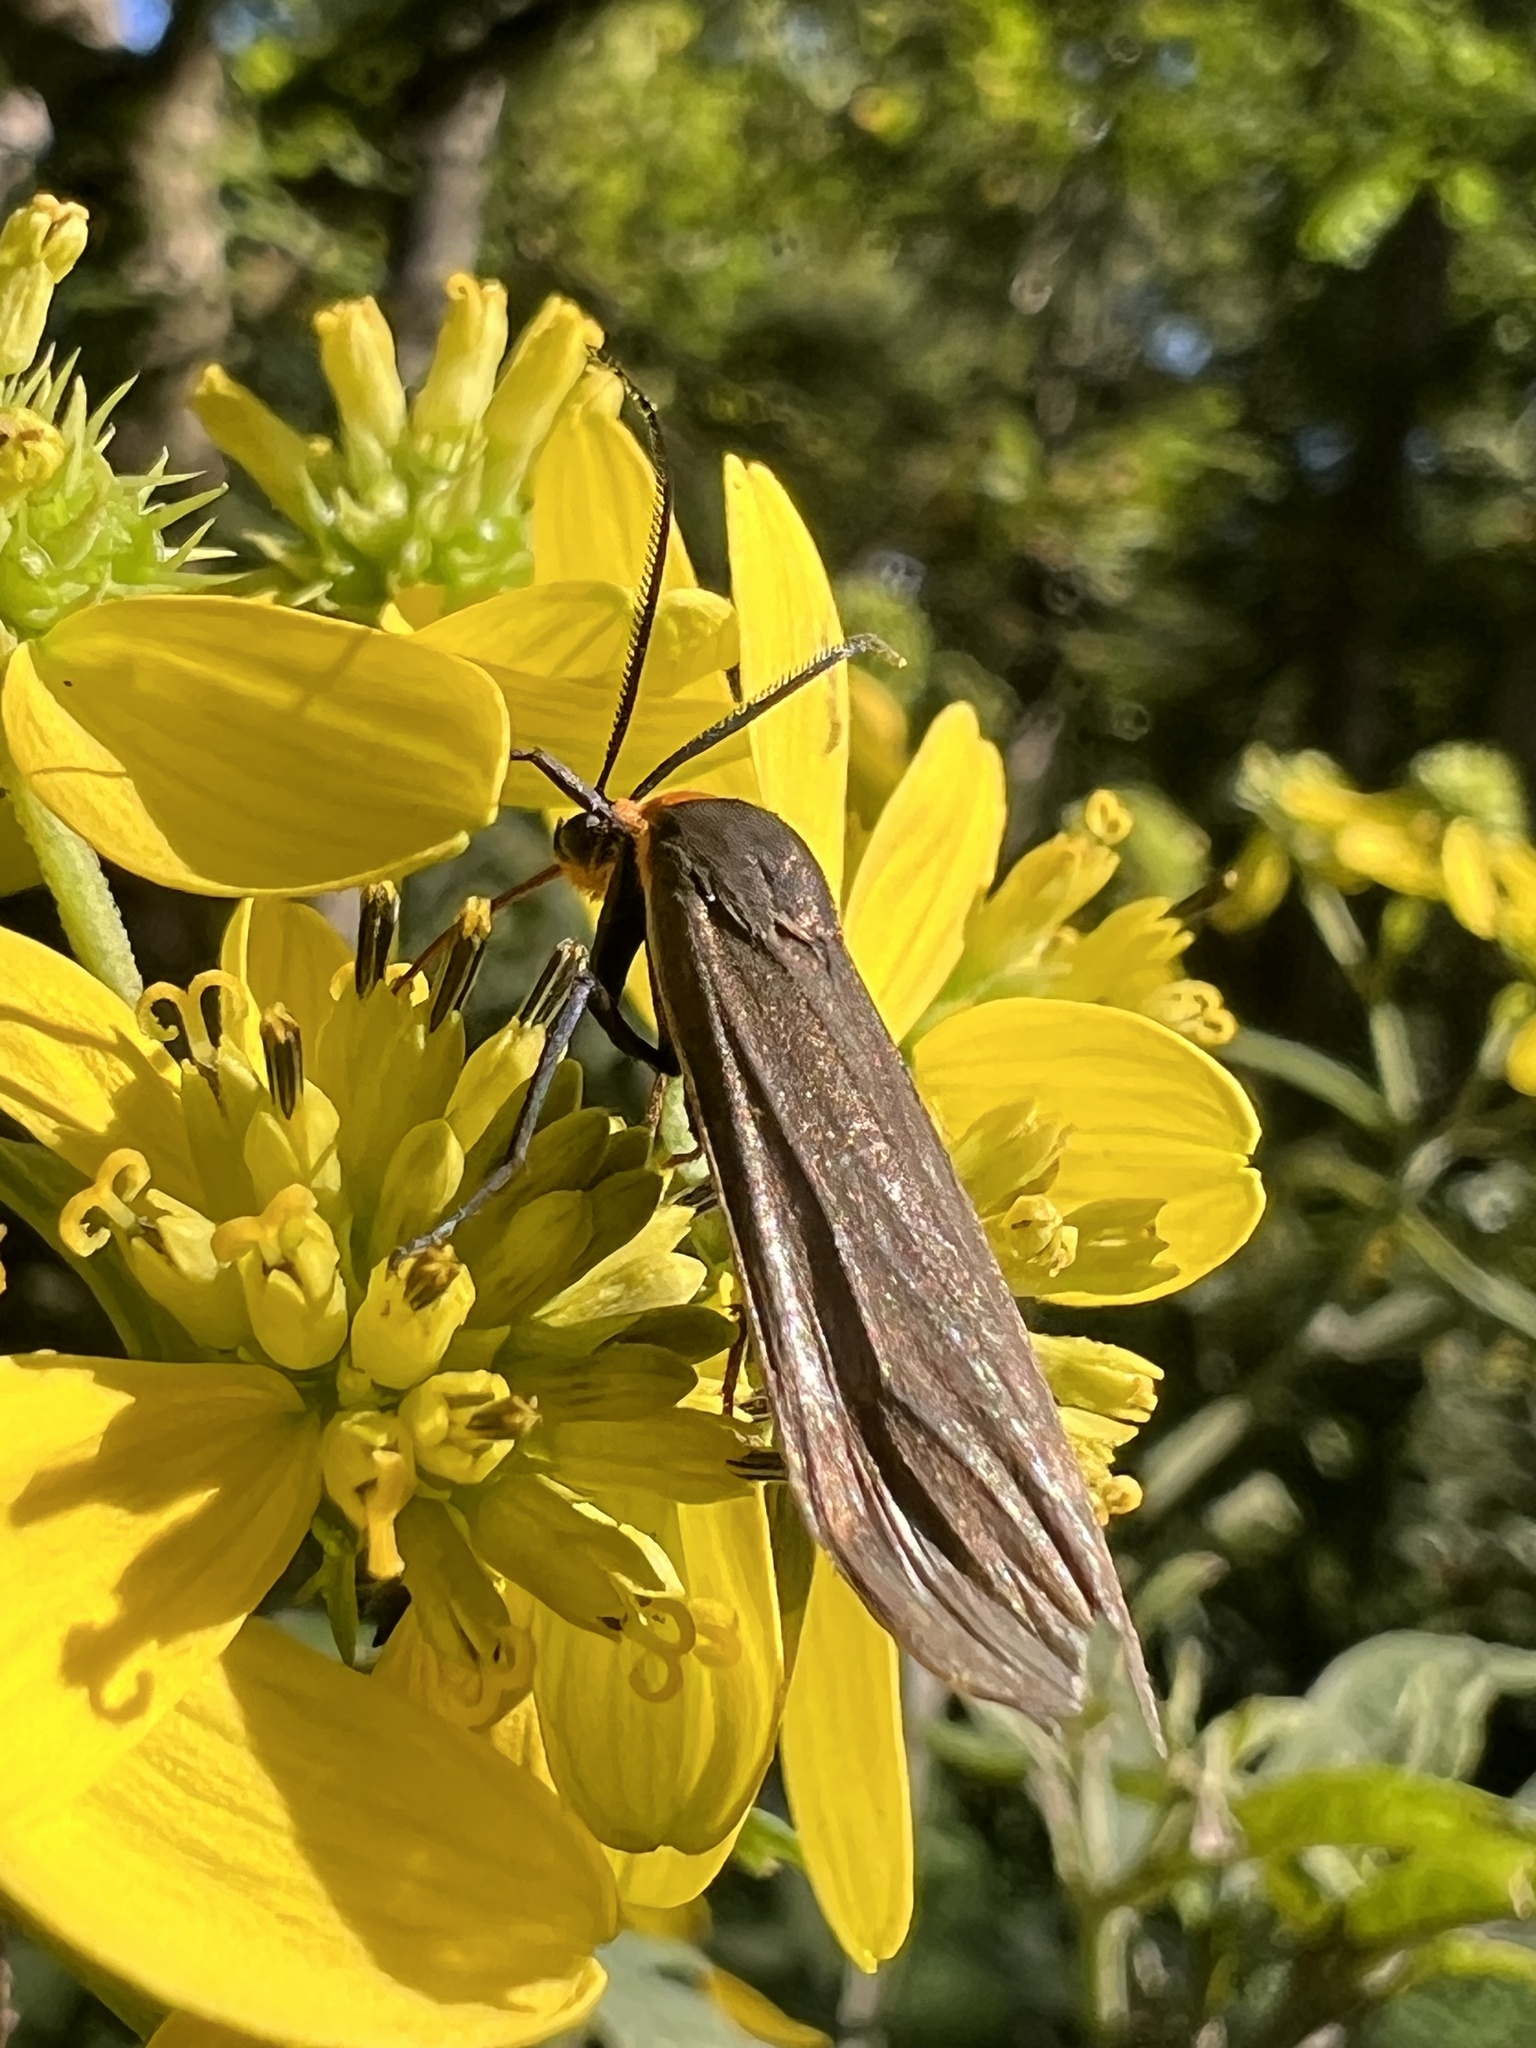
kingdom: Animalia
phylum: Arthropoda
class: Insecta
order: Lepidoptera
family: Erebidae
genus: Cisseps
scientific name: Cisseps fulvicollis
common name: Yellow-collared scape moth
